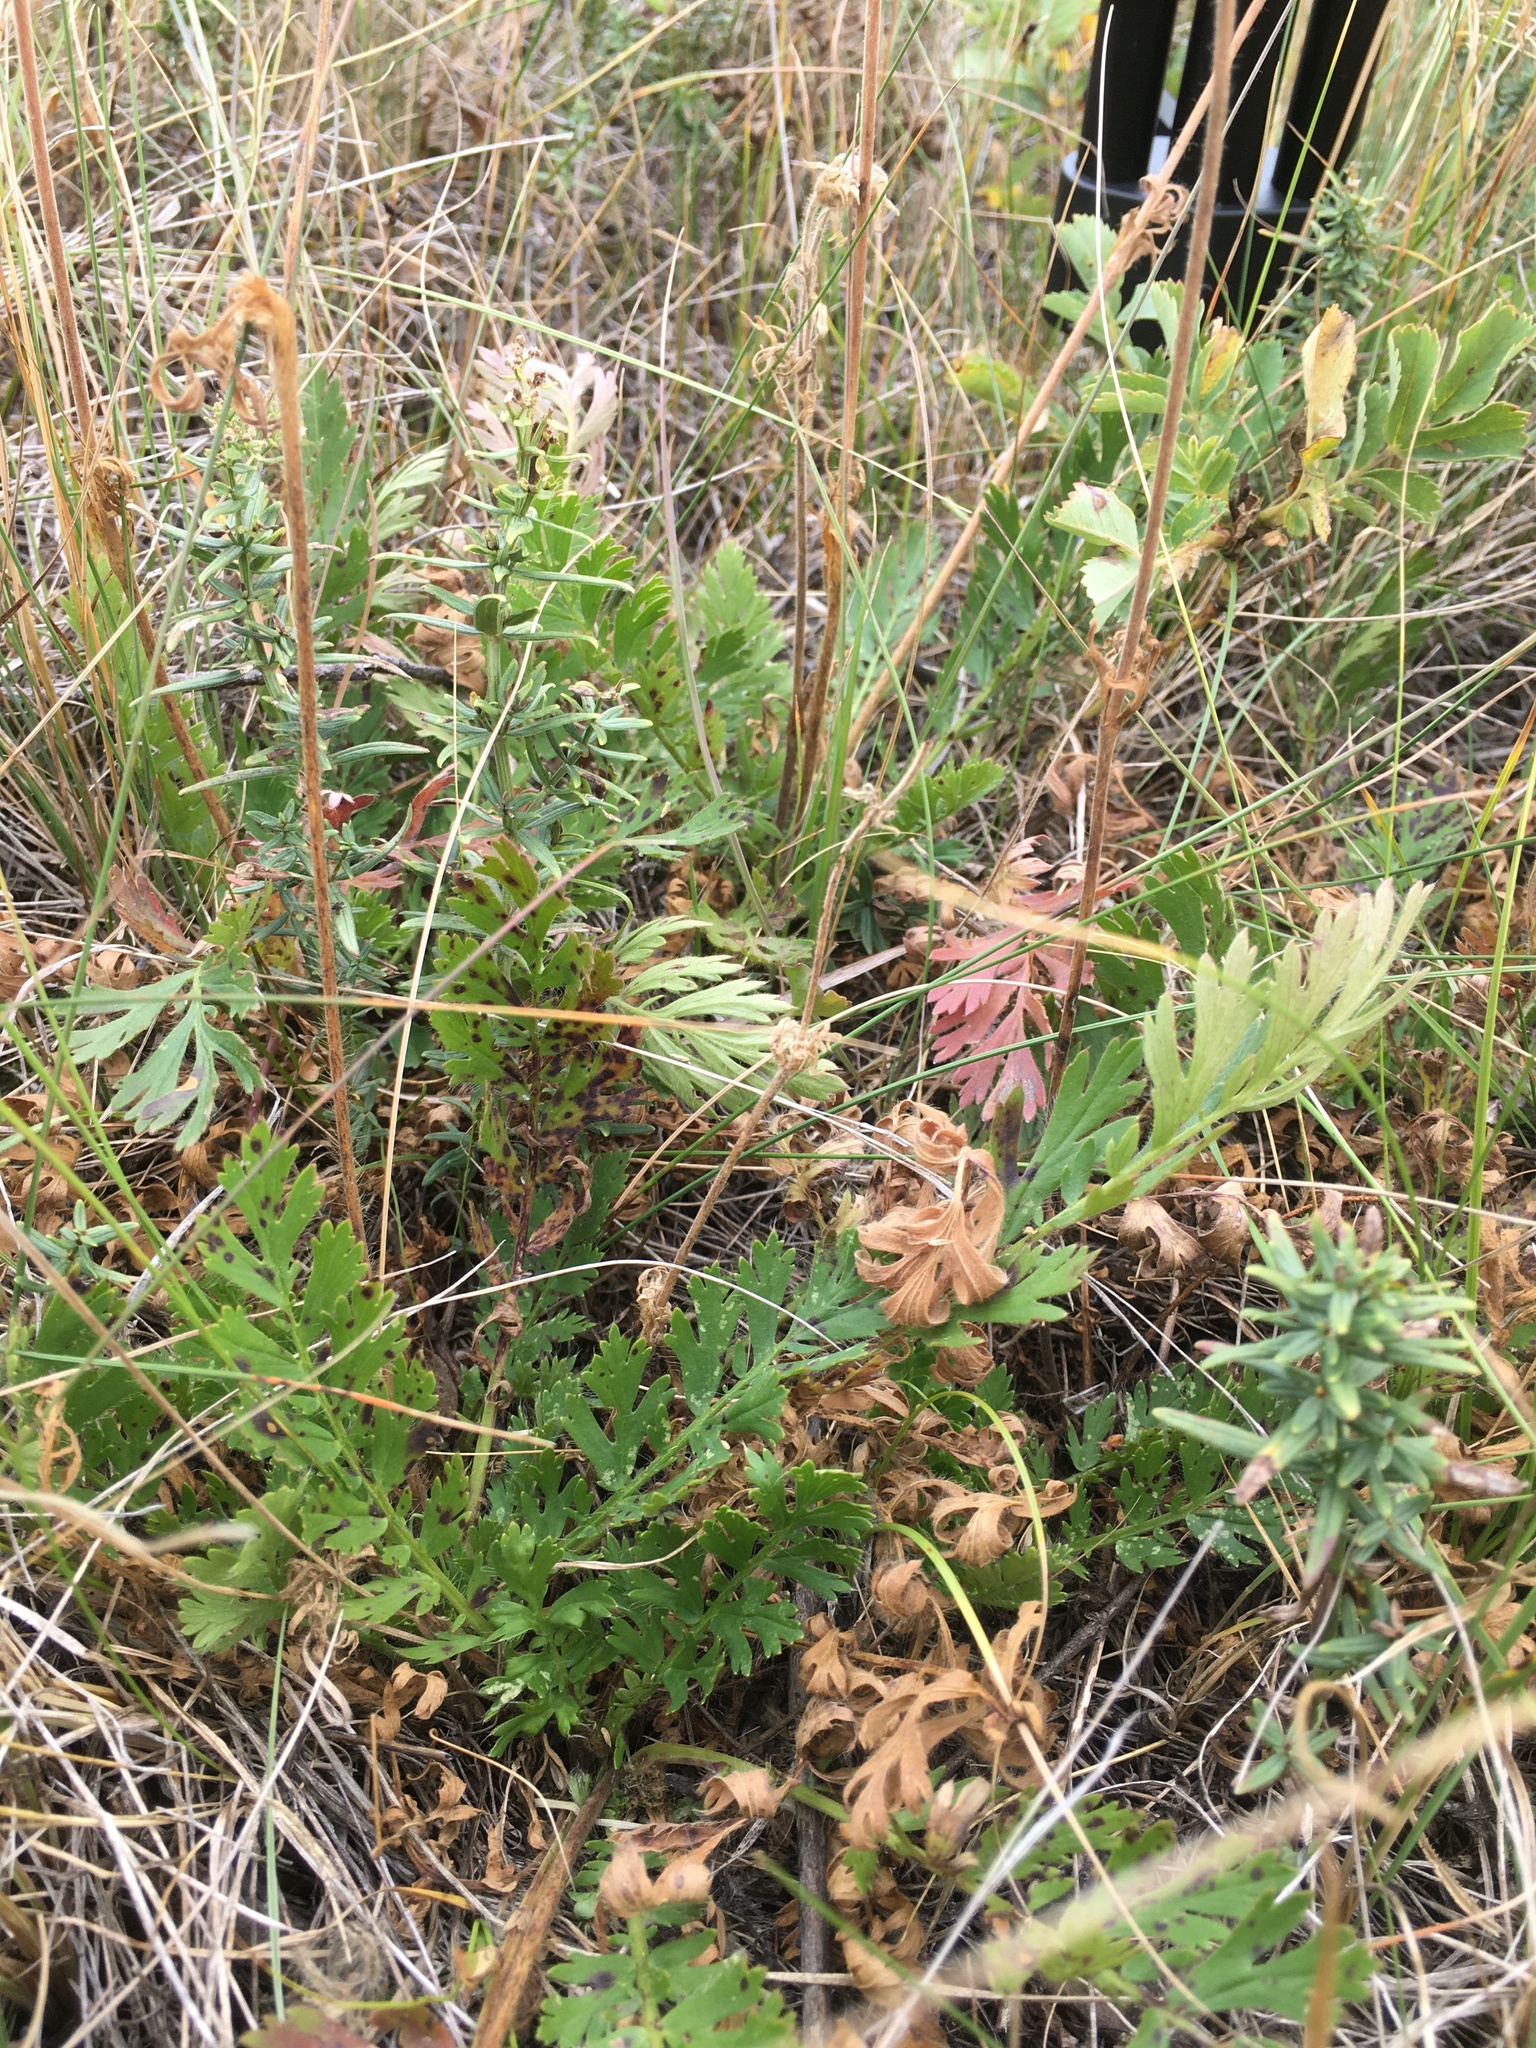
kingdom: Plantae
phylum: Tracheophyta
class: Magnoliopsida
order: Rosales
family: Rosaceae
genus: Geum
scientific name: Geum triflorum
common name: Old man's whiskers
